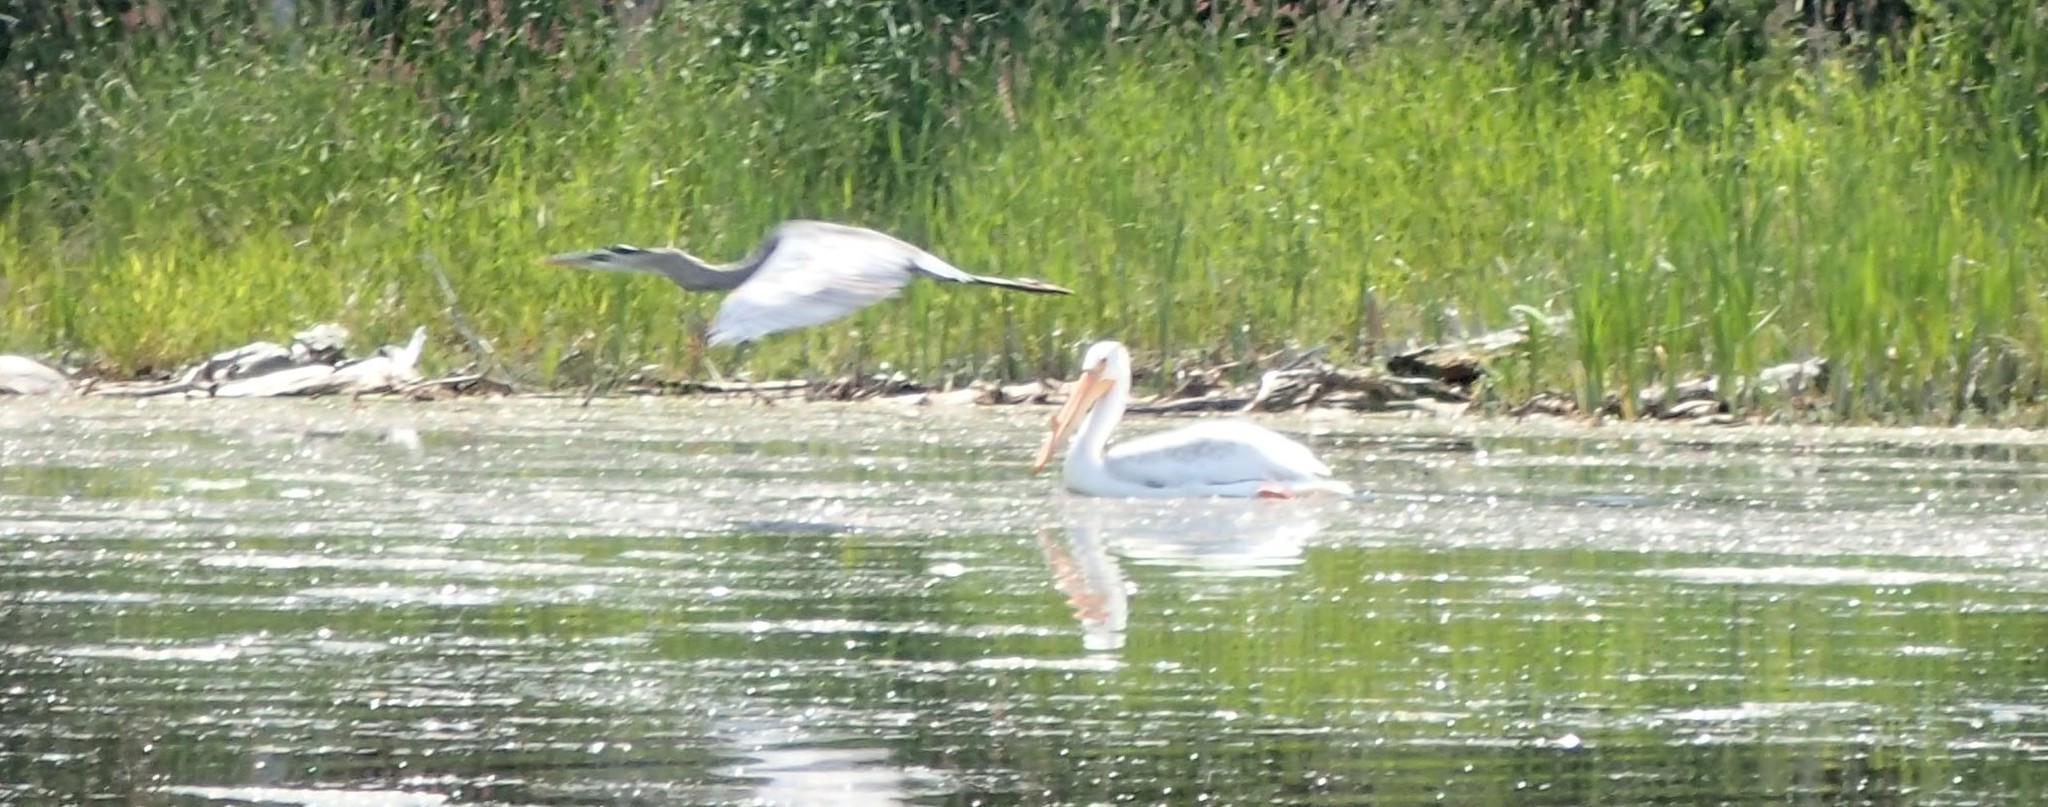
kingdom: Animalia
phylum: Chordata
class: Aves
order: Pelecaniformes
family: Ardeidae
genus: Ardea
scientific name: Ardea herodias
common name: Great blue heron
